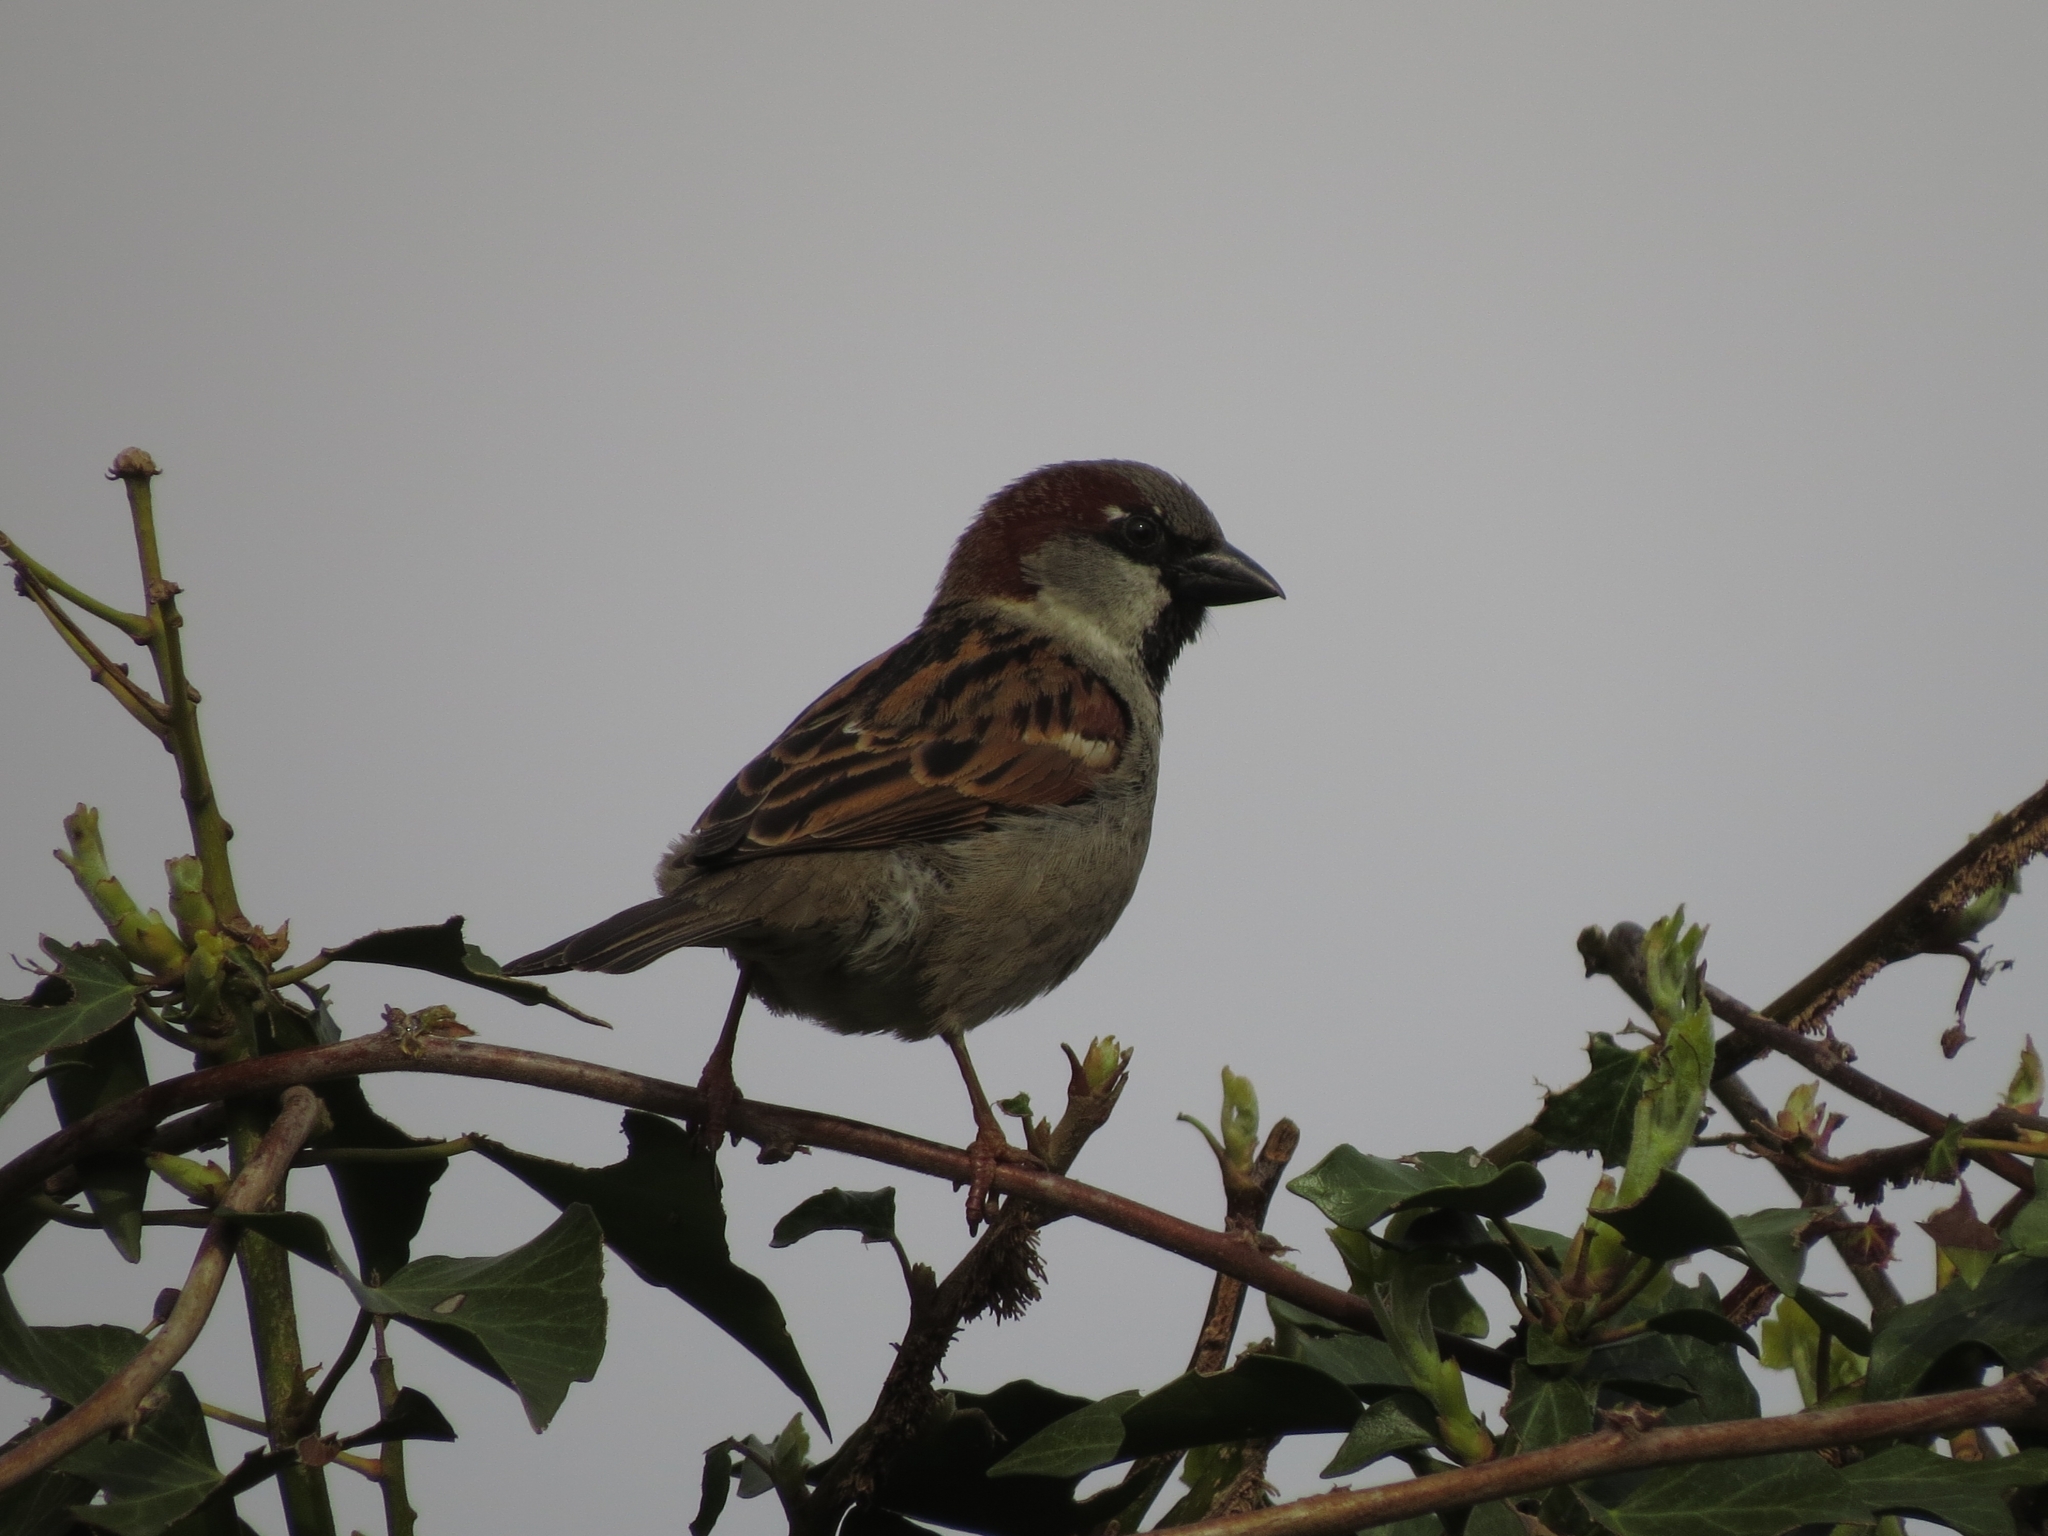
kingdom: Animalia
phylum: Chordata
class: Aves
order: Passeriformes
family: Passeridae
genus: Passer
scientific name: Passer domesticus
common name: House sparrow
